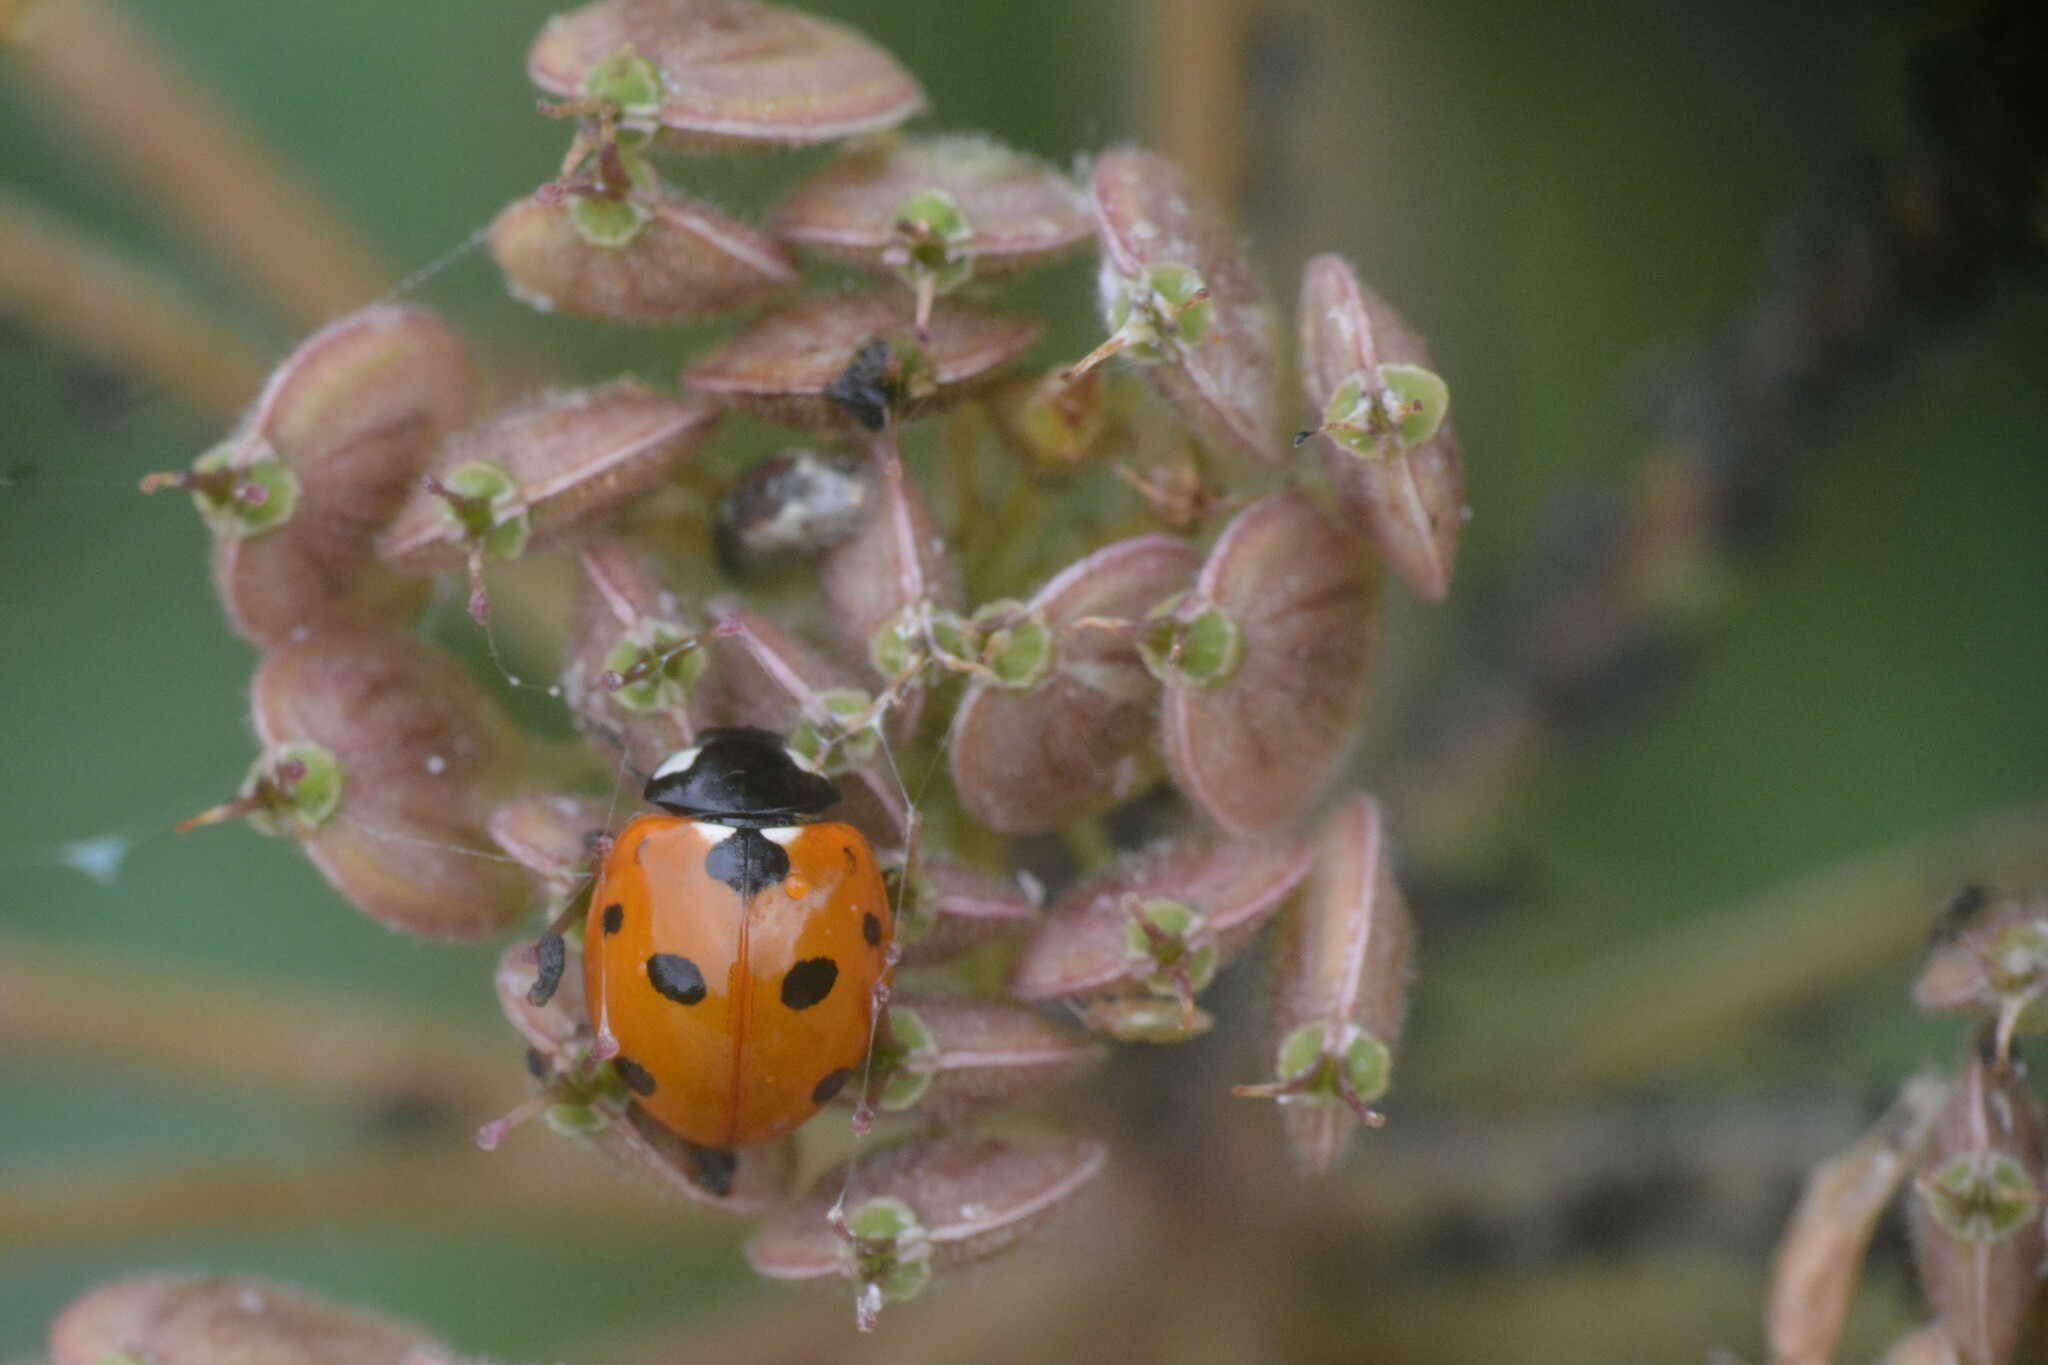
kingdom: Animalia
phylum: Arthropoda
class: Insecta
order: Coleoptera
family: Coccinellidae
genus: Coccinella
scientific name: Coccinella septempunctata
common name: Sevenspotted lady beetle
